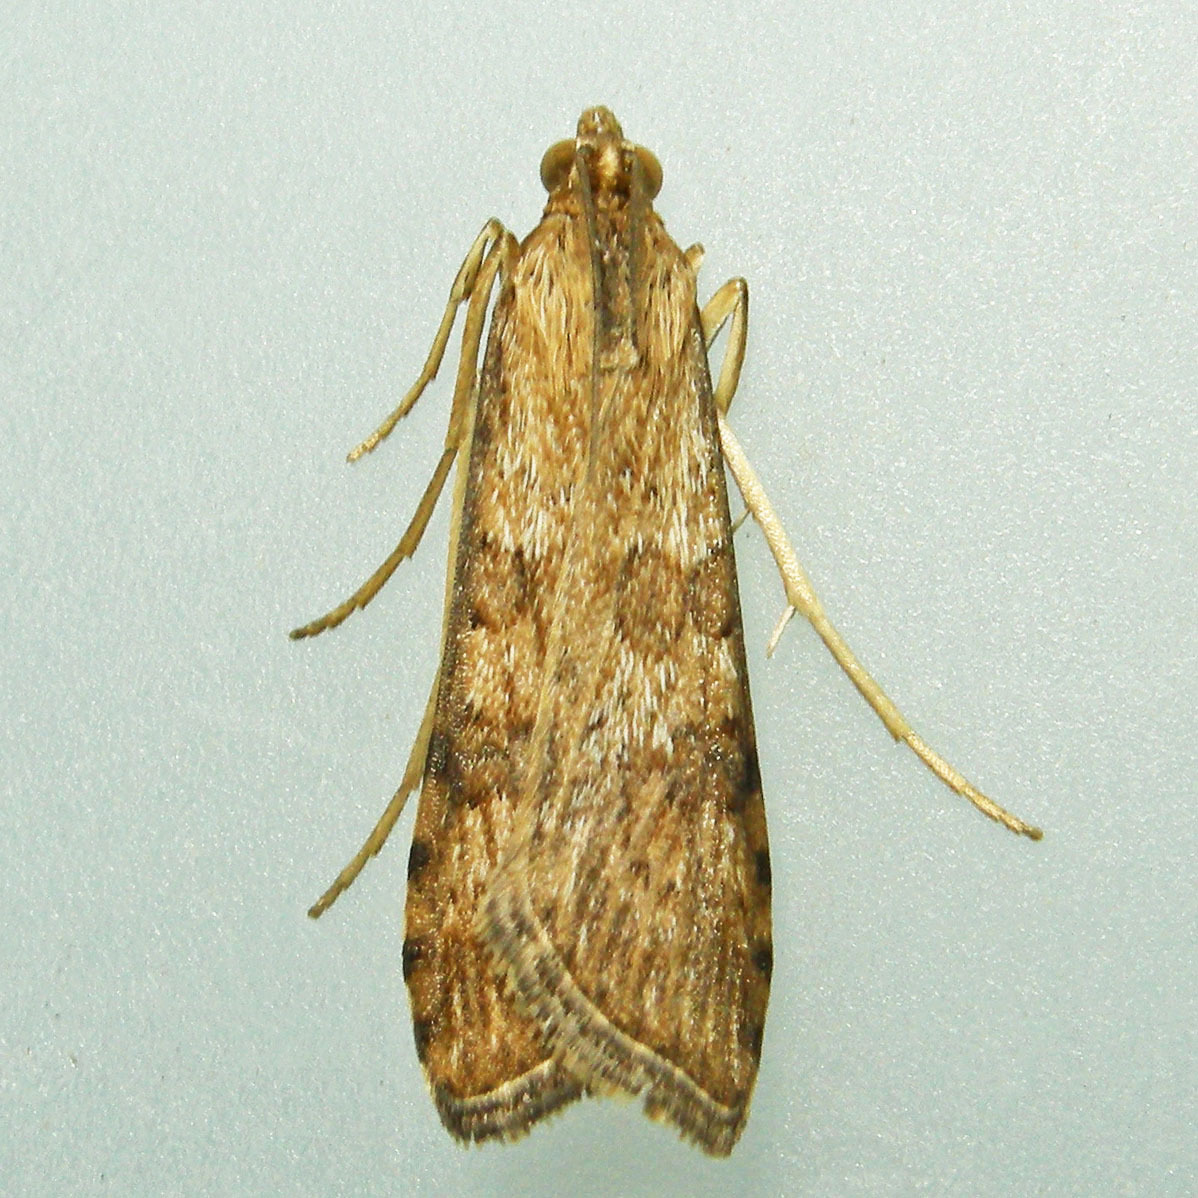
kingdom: Animalia
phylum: Arthropoda
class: Insecta
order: Lepidoptera
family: Crambidae
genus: Nomophila
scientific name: Nomophila nearctica
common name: American rush veneer
